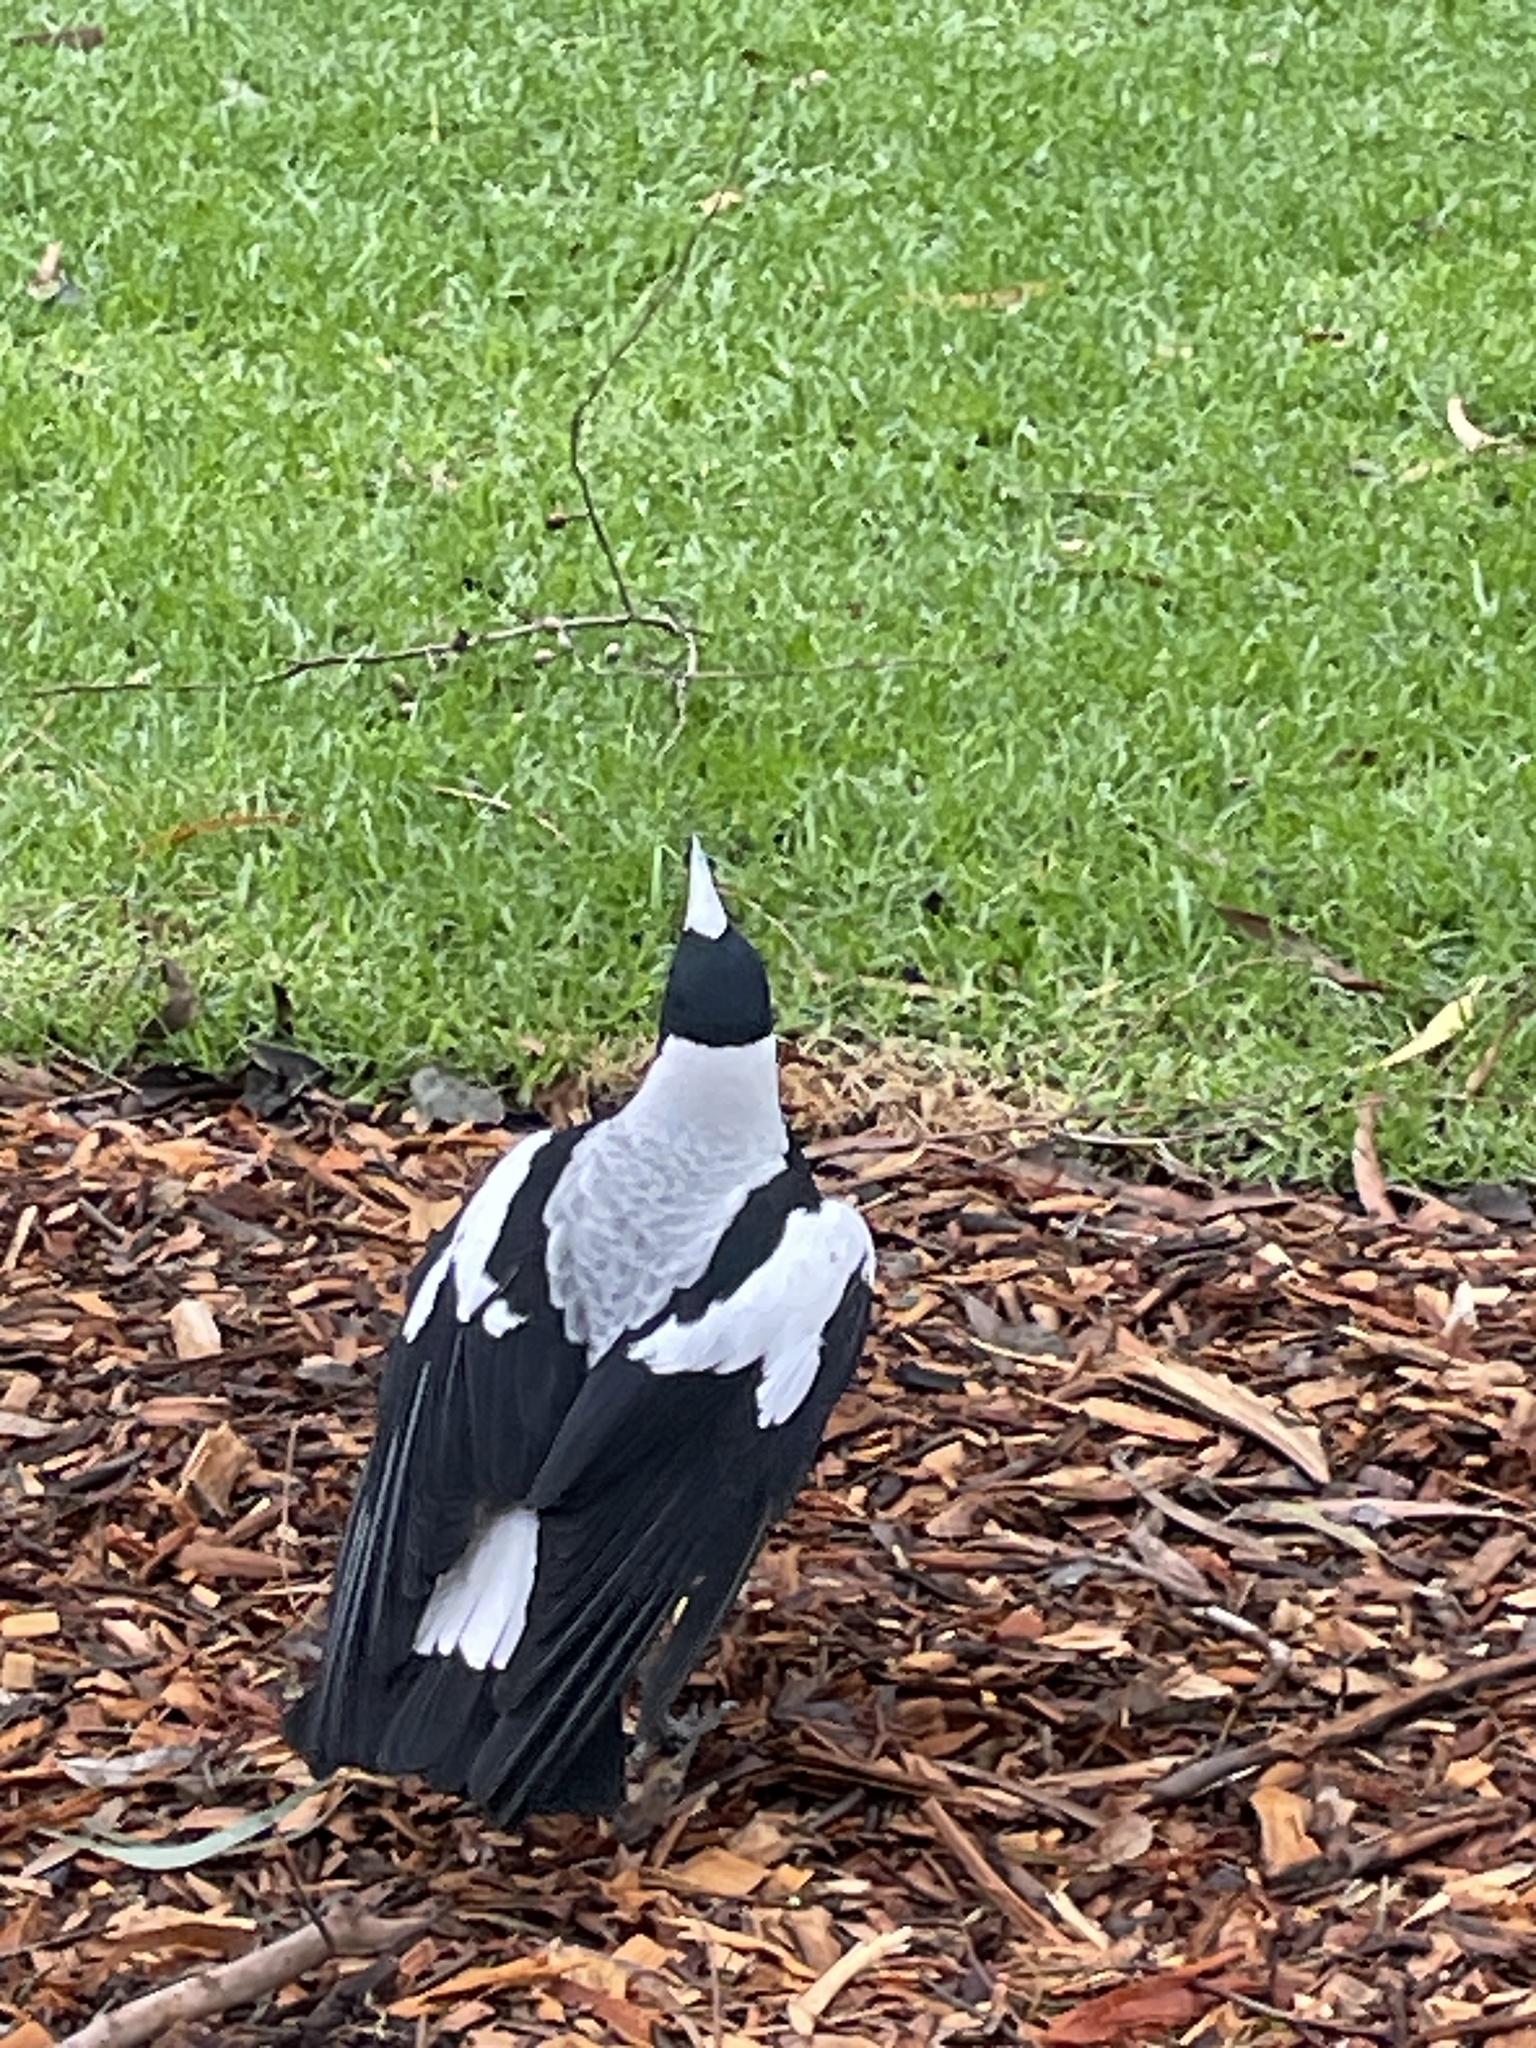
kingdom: Animalia
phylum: Chordata
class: Aves
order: Passeriformes
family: Cracticidae
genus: Gymnorhina
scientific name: Gymnorhina tibicen
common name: Australian magpie
